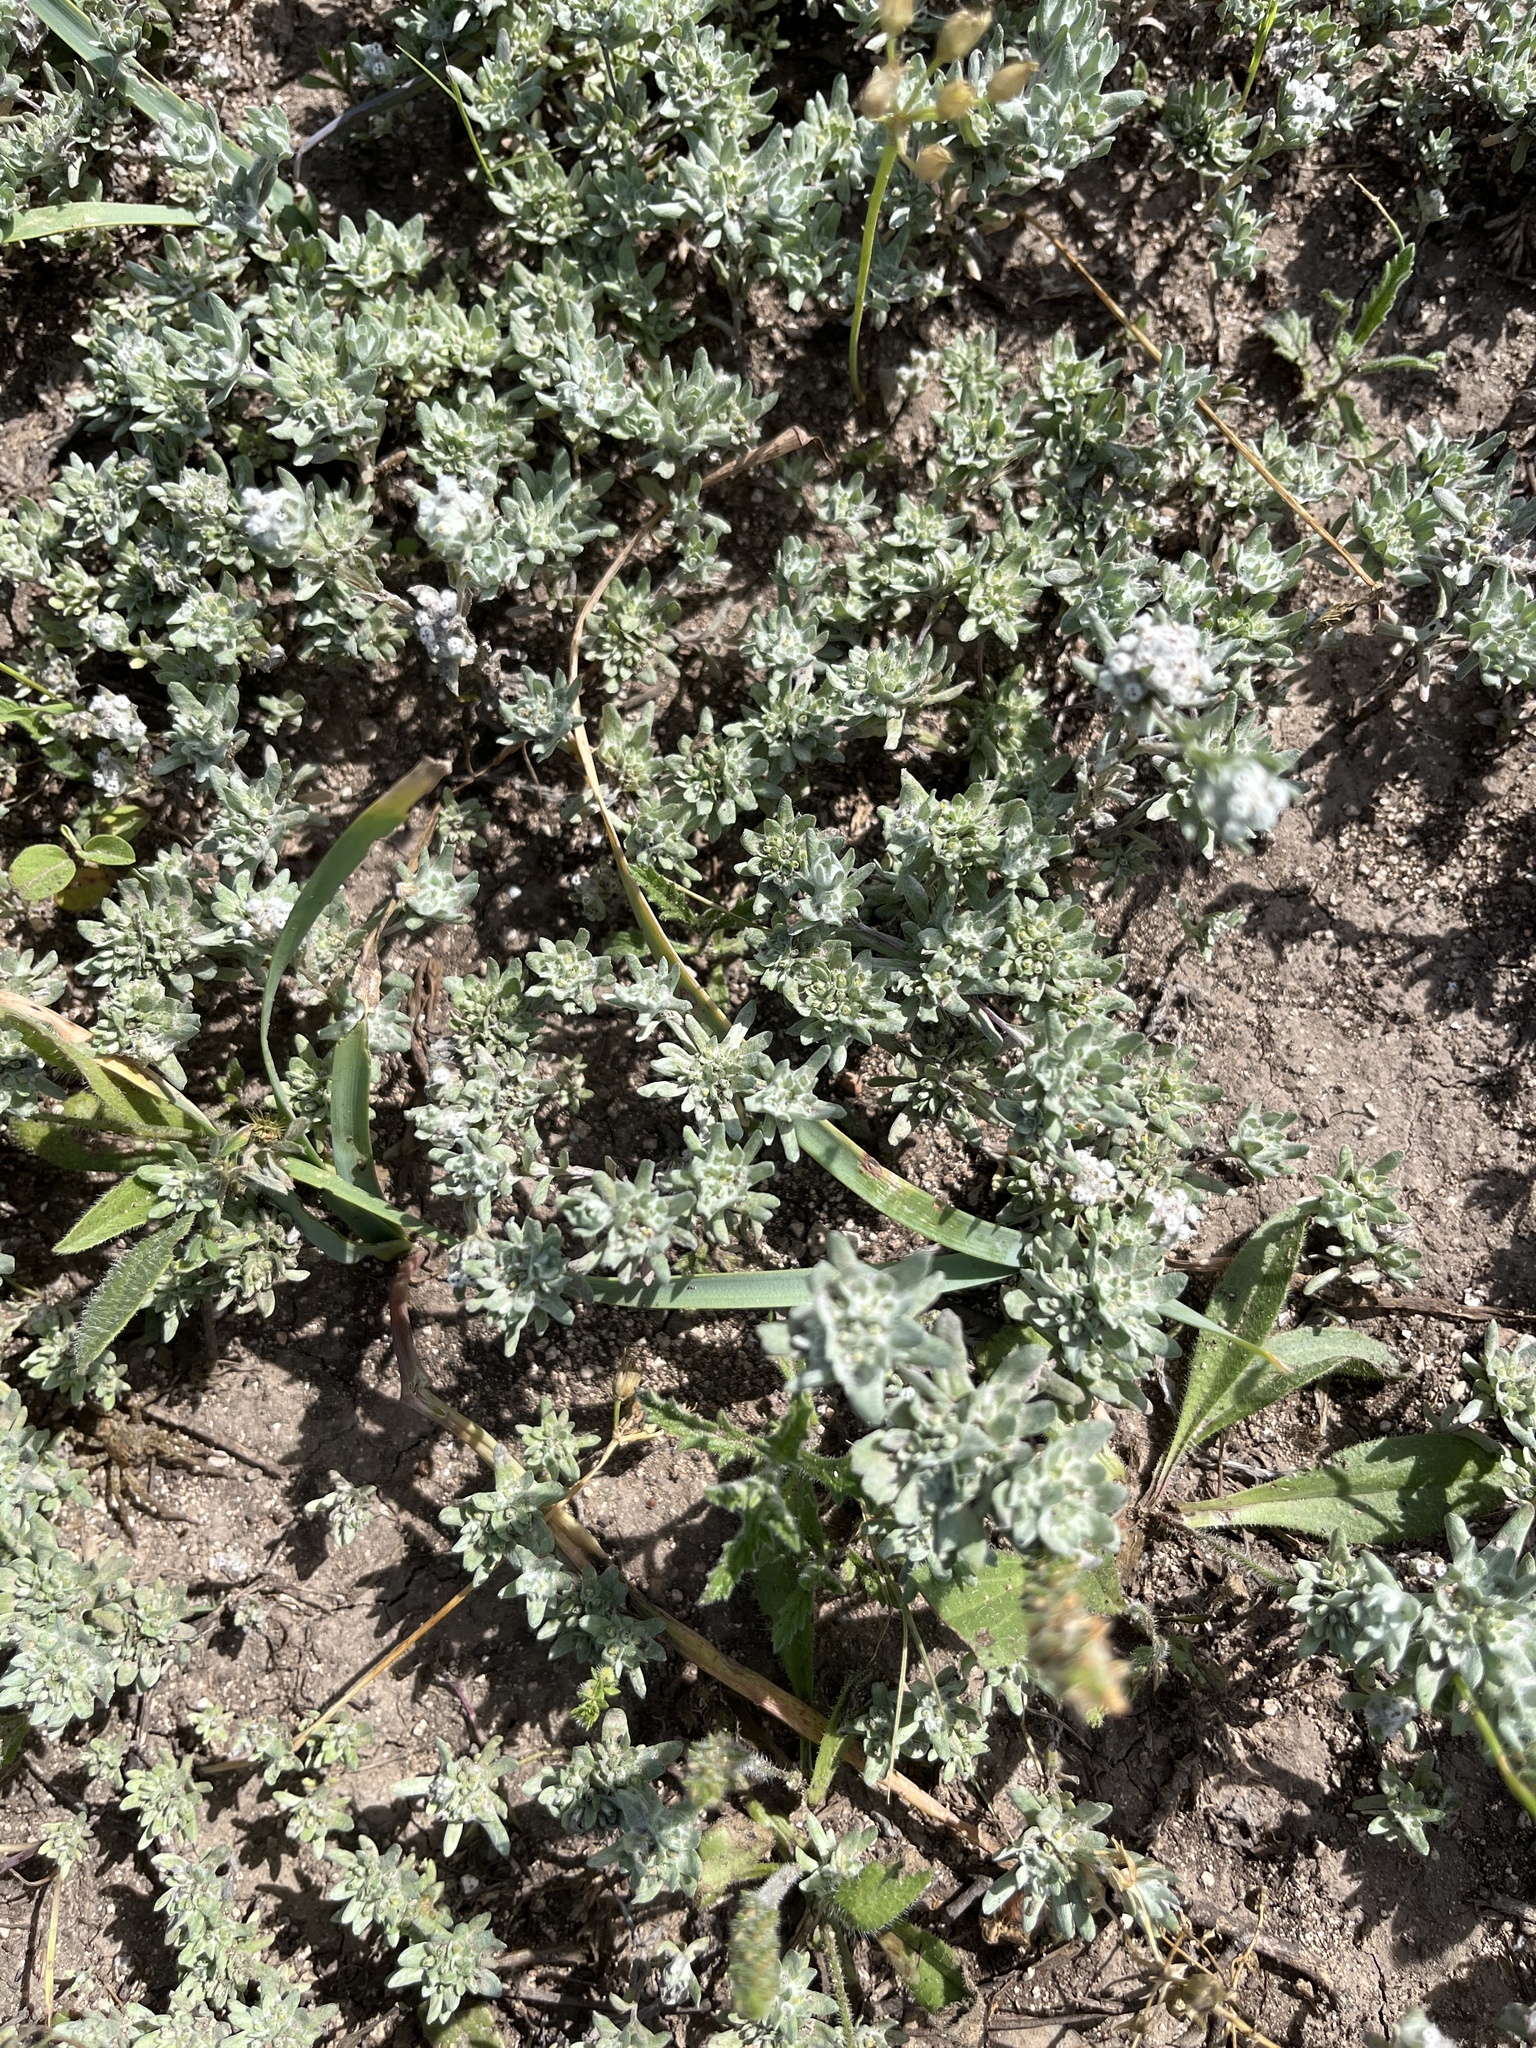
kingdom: Plantae
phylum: Tracheophyta
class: Magnoliopsida
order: Asterales
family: Asteraceae
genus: Diaperia
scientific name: Diaperia prolifera
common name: Big-head rabbit-tobacco
